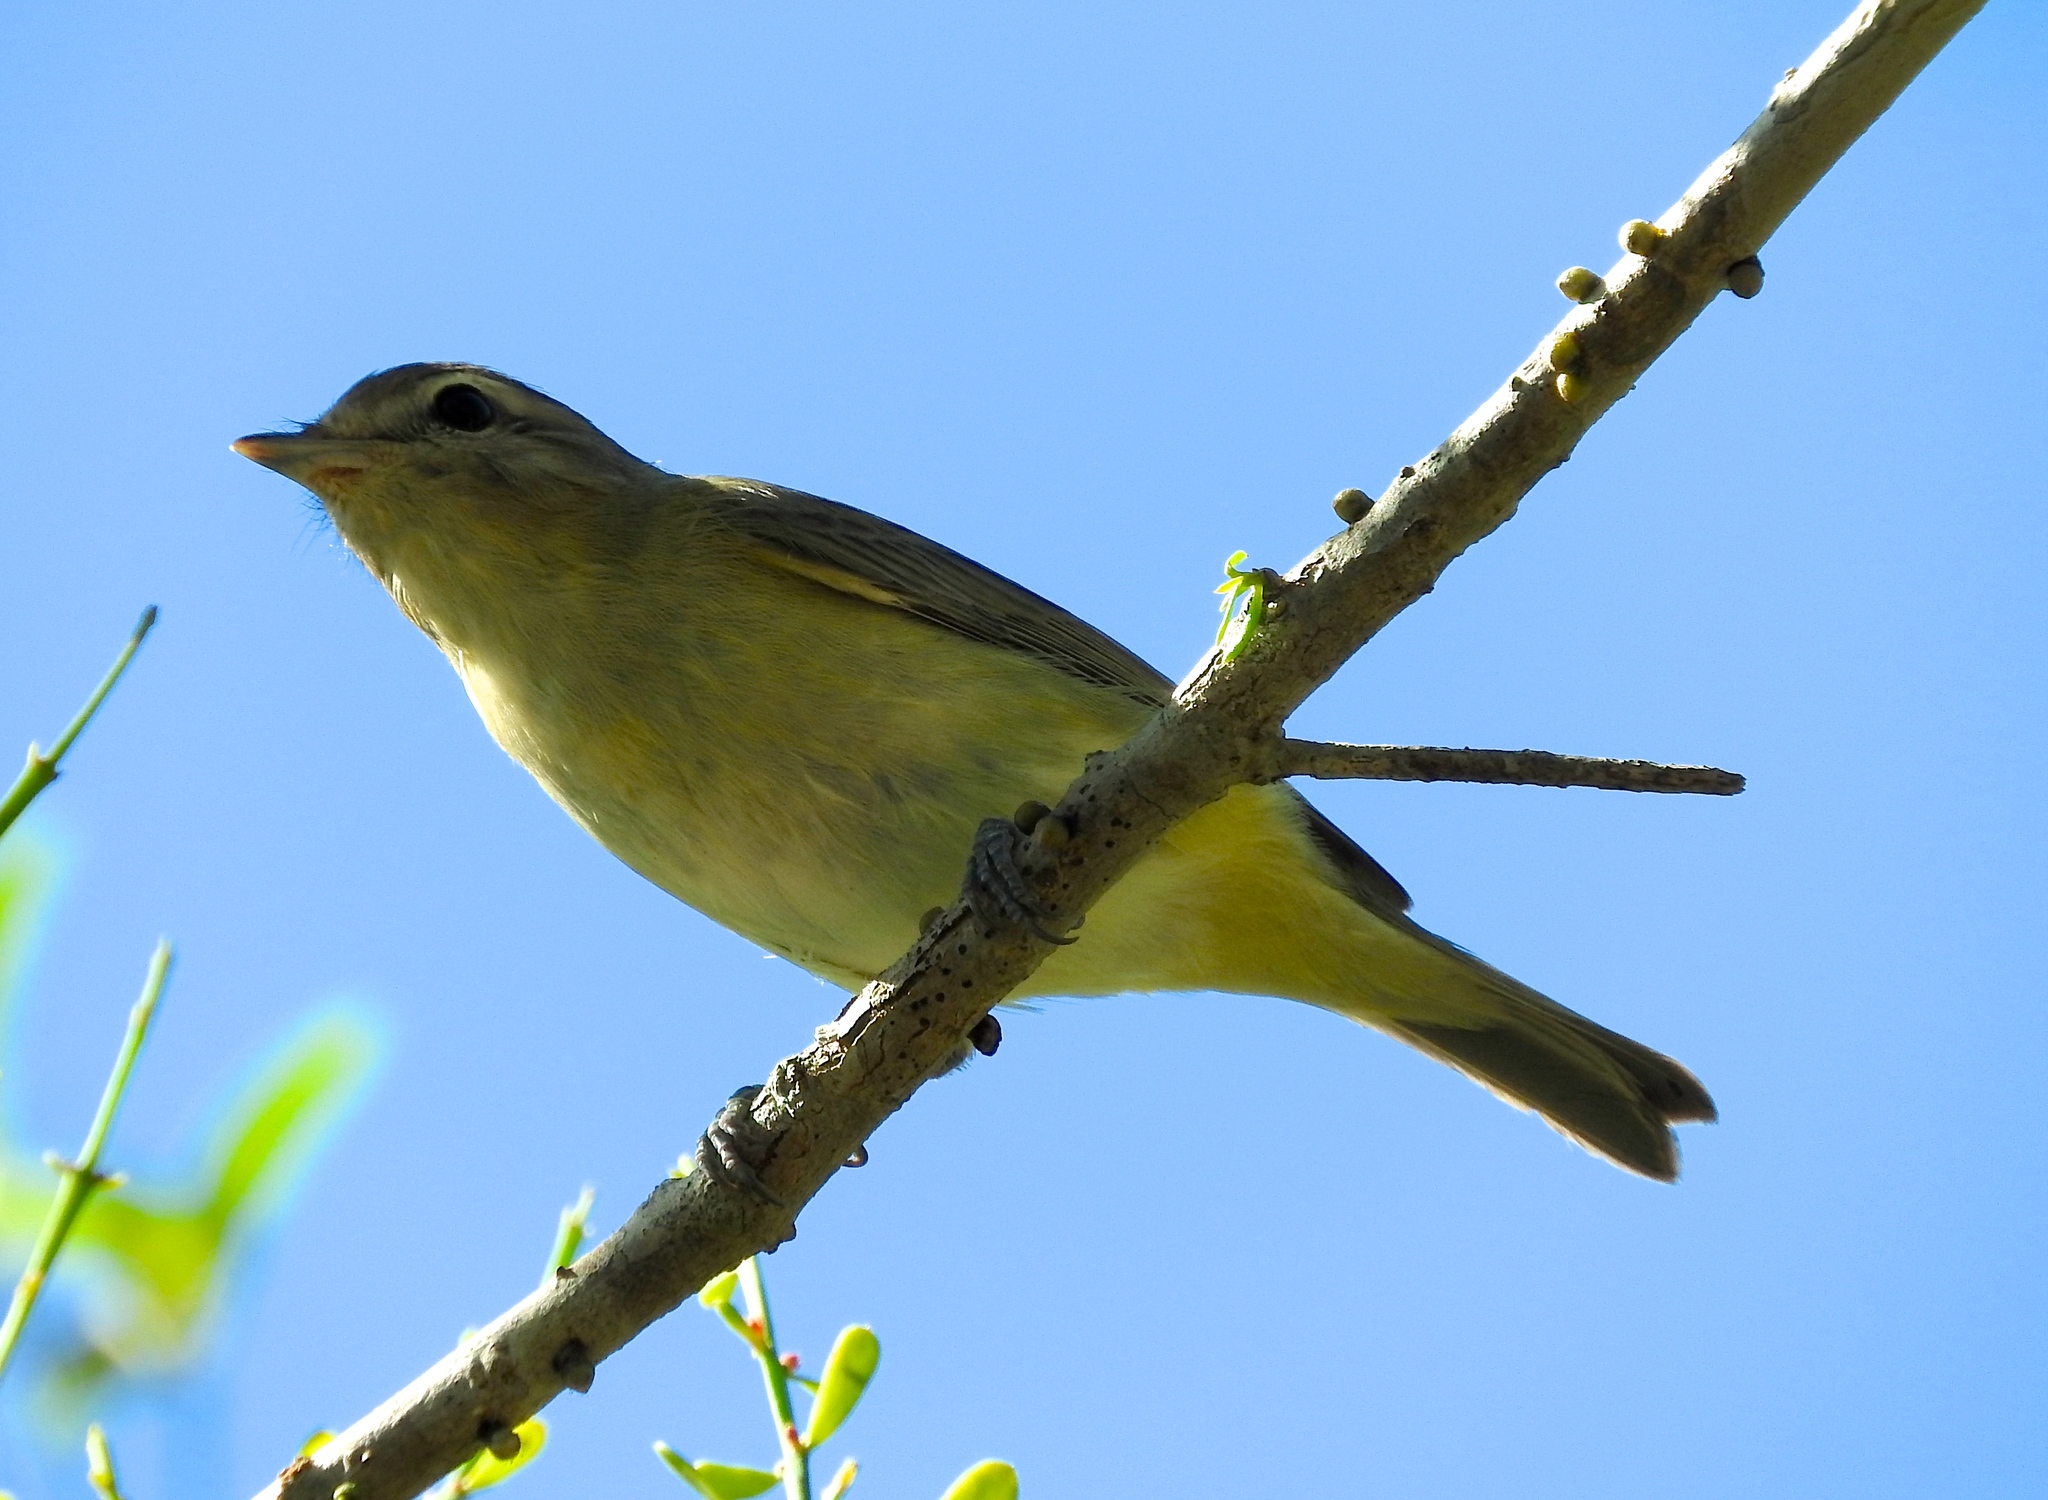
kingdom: Animalia
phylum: Chordata
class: Aves
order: Passeriformes
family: Vireonidae
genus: Vireo
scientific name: Vireo bellii
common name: Bell's vireo
